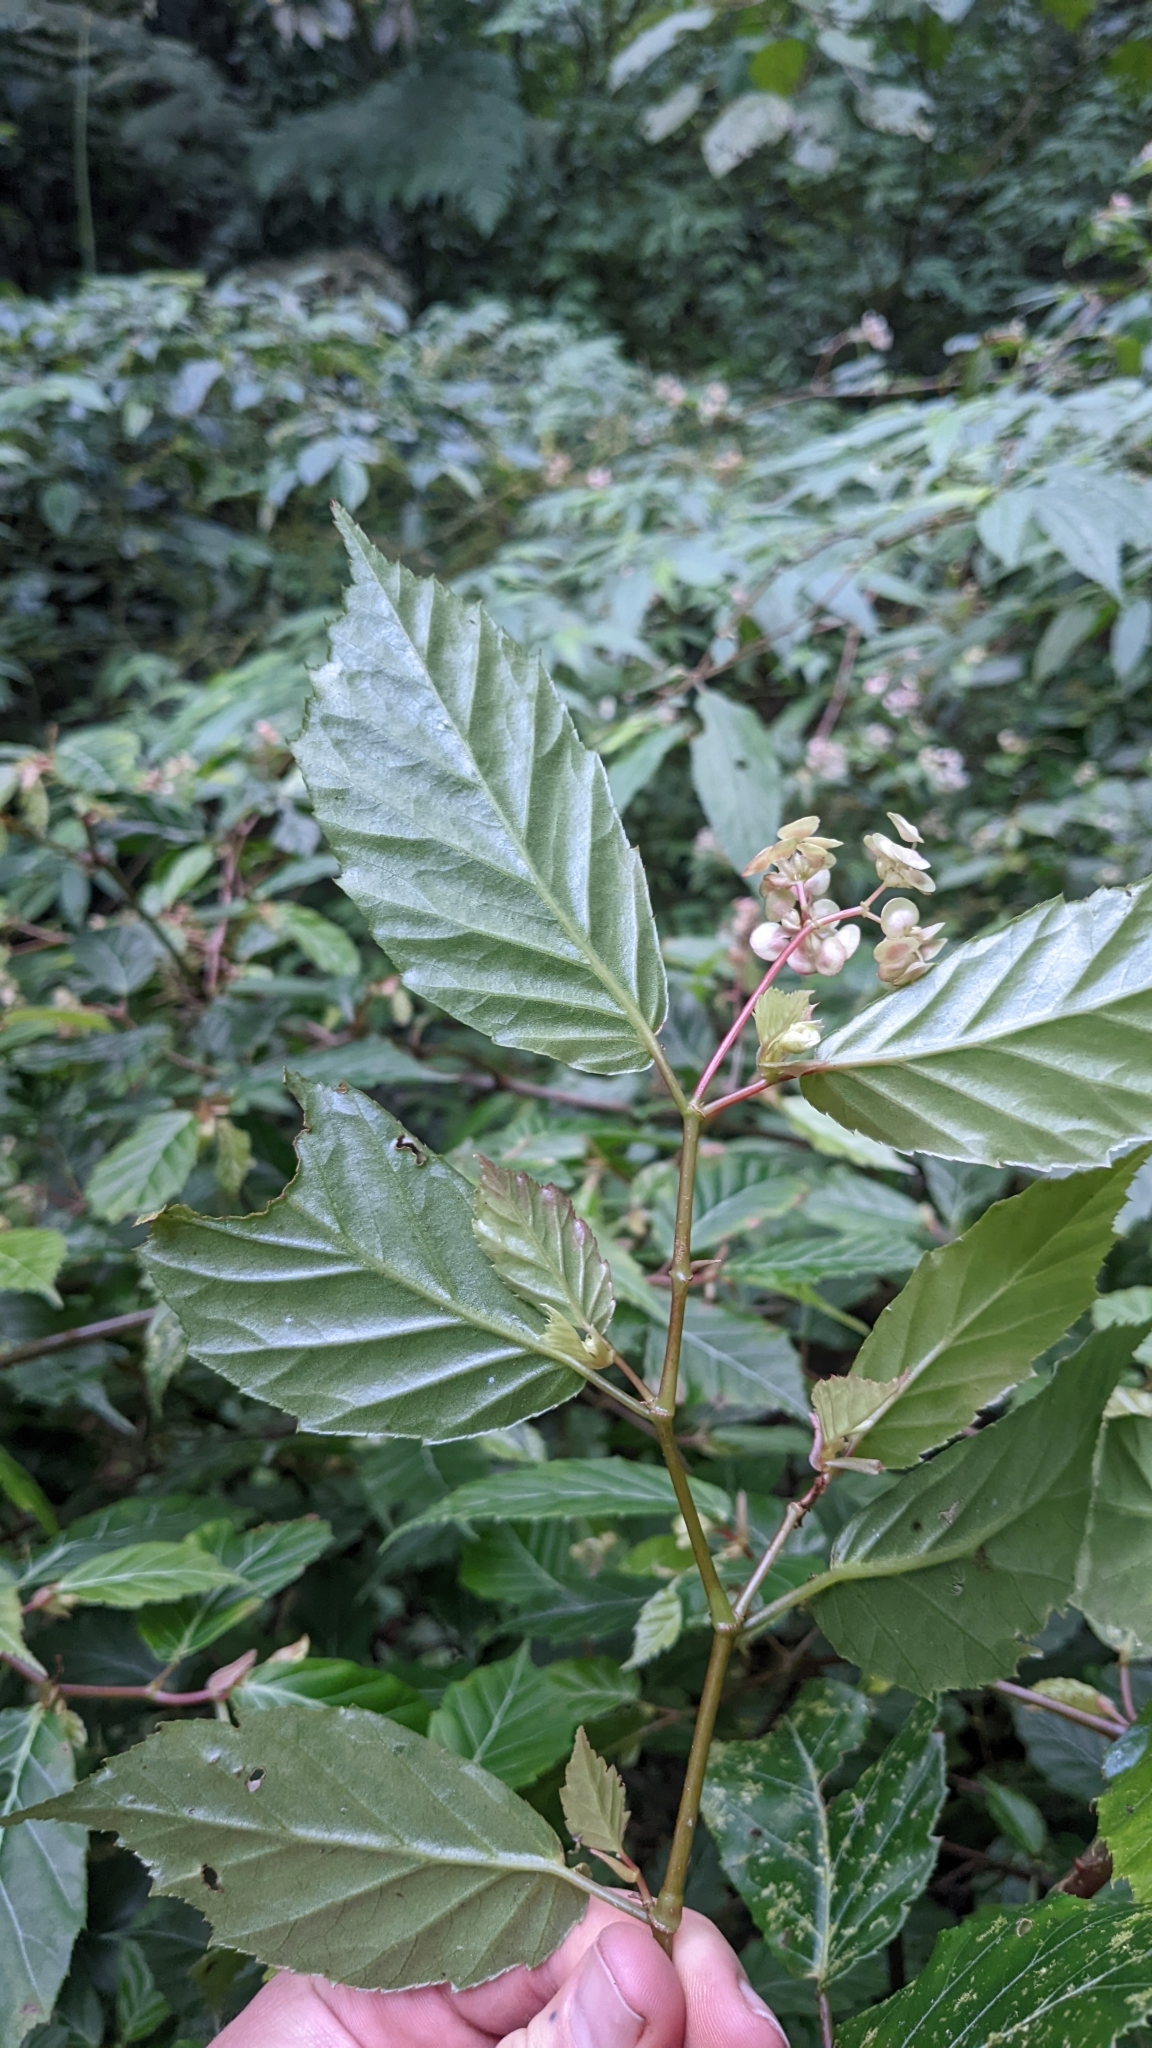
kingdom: Plantae
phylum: Tracheophyta
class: Magnoliopsida
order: Cucurbitales
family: Begoniaceae
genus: Begonia
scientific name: Begonia estrellensis
